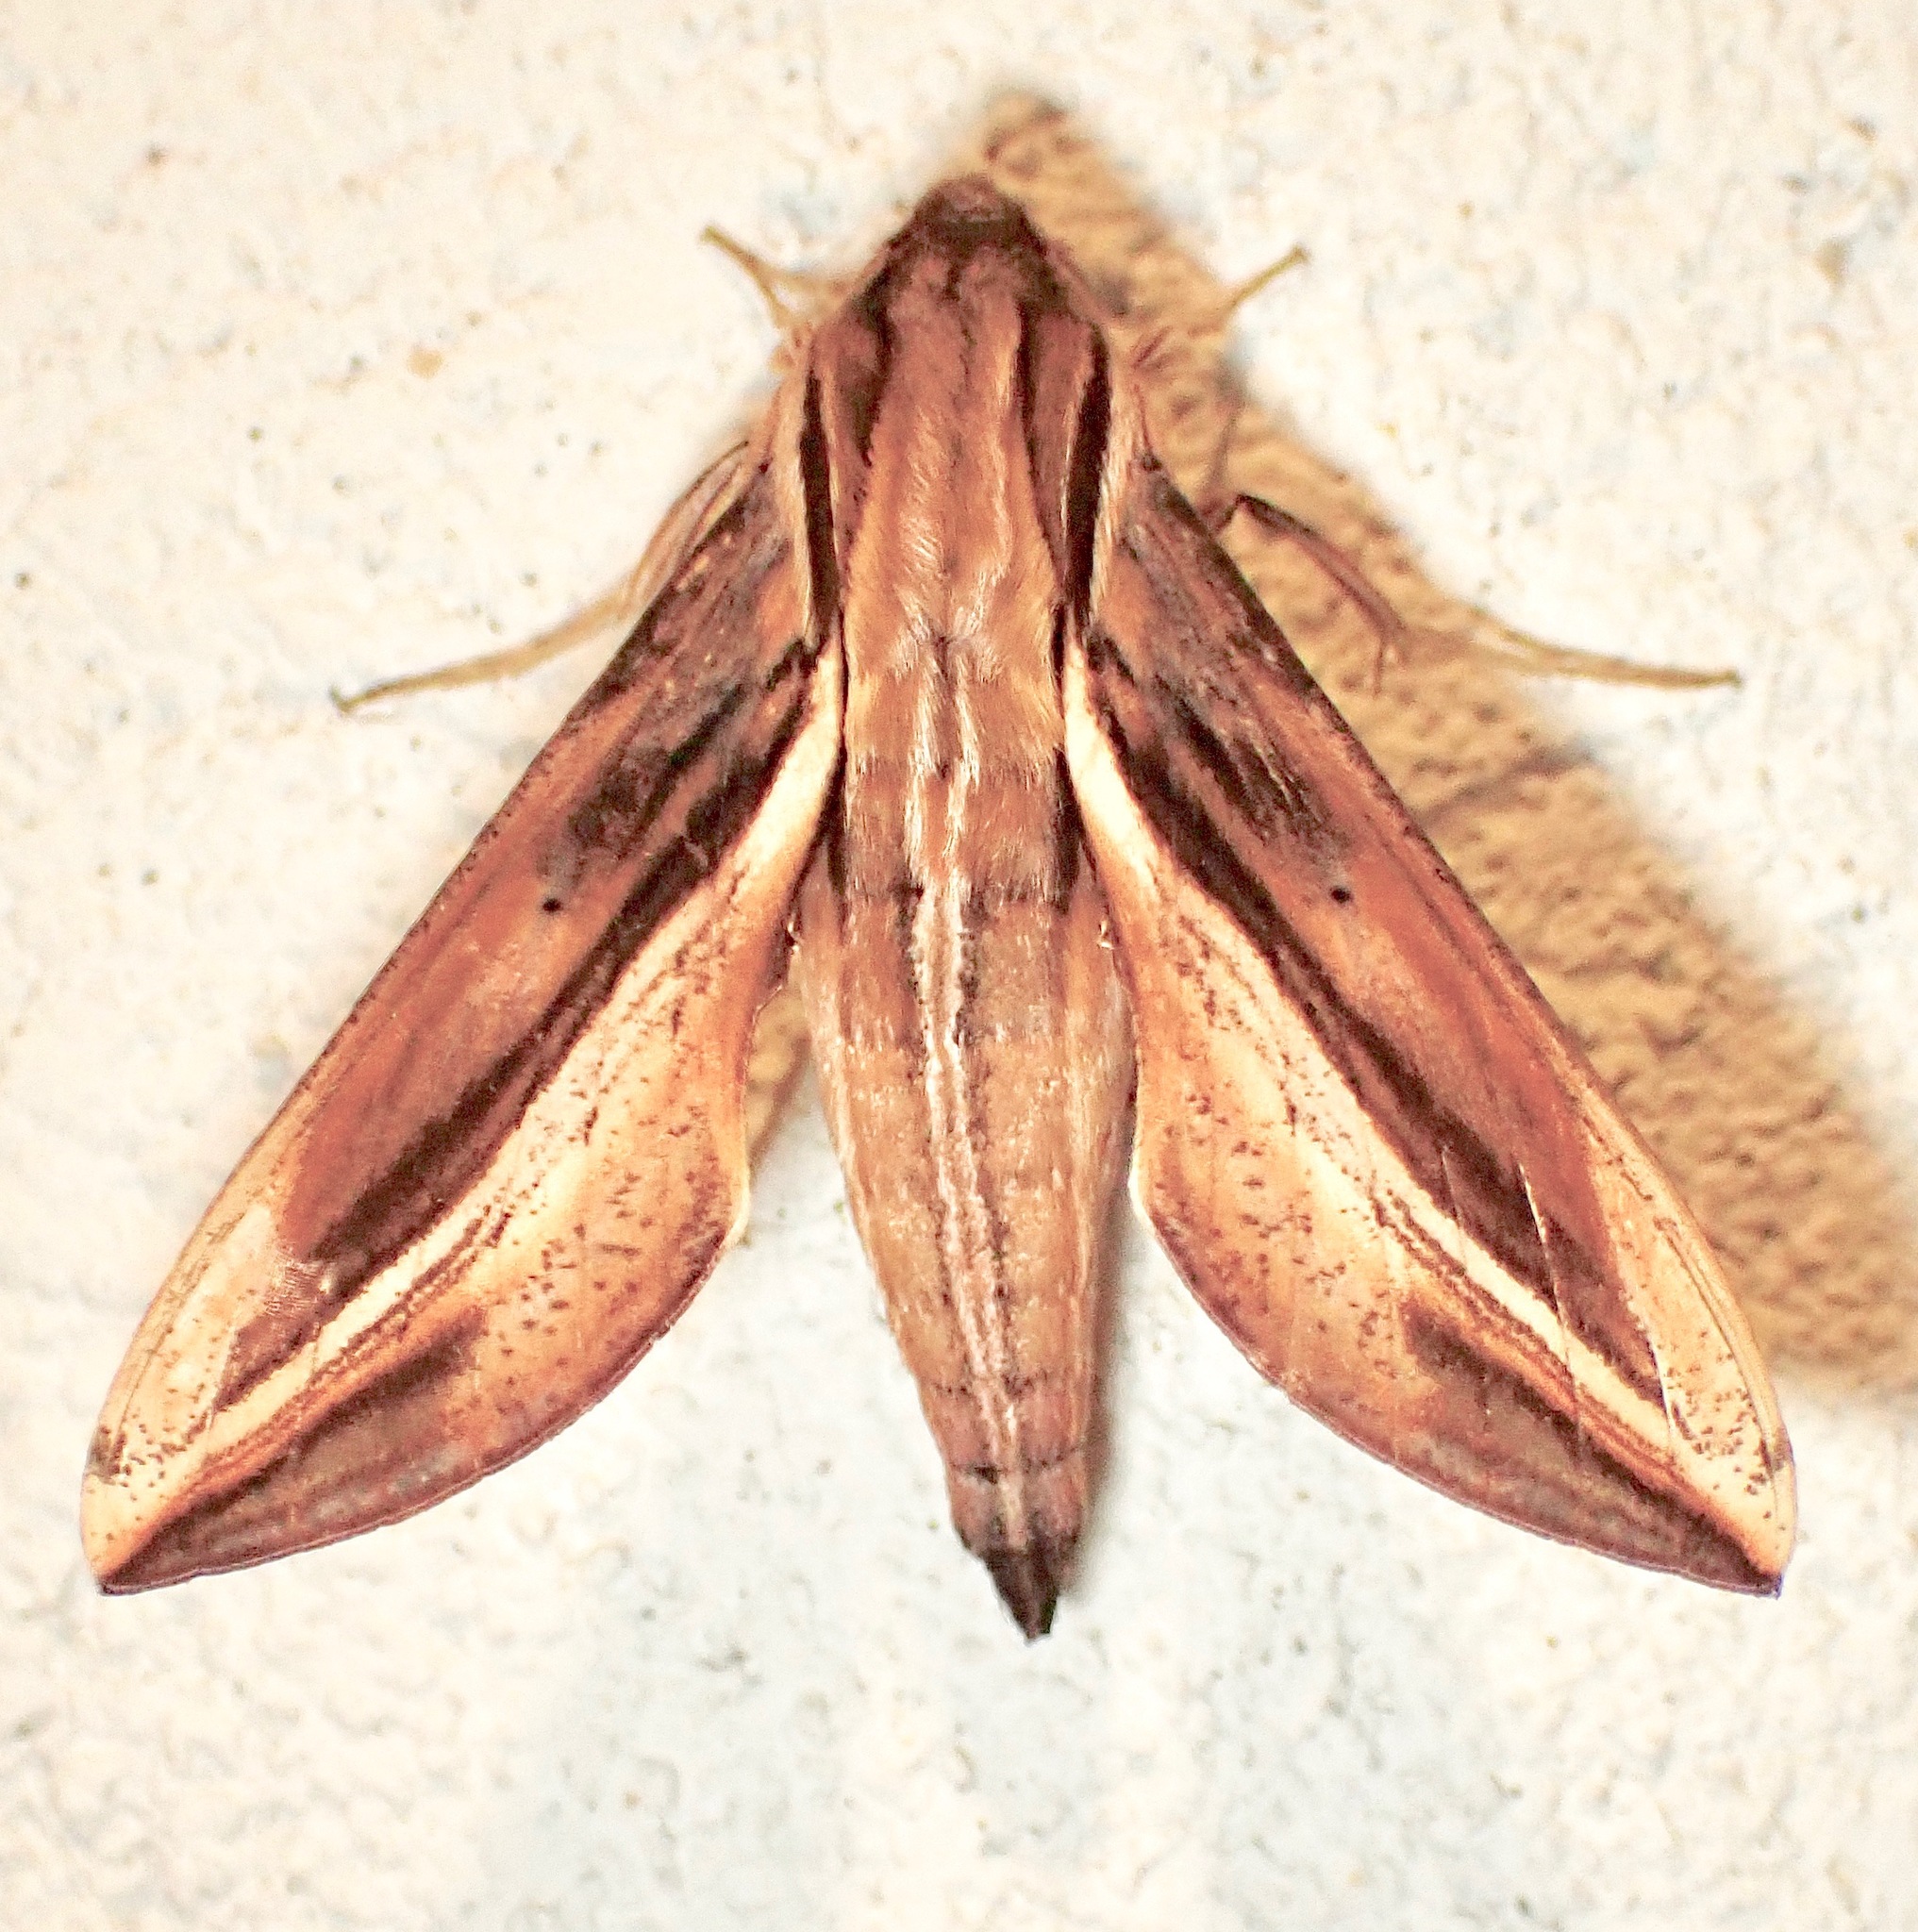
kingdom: Animalia
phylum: Arthropoda
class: Insecta
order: Lepidoptera
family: Sphingidae
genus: Xylophanes
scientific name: Xylophanes thyelia
